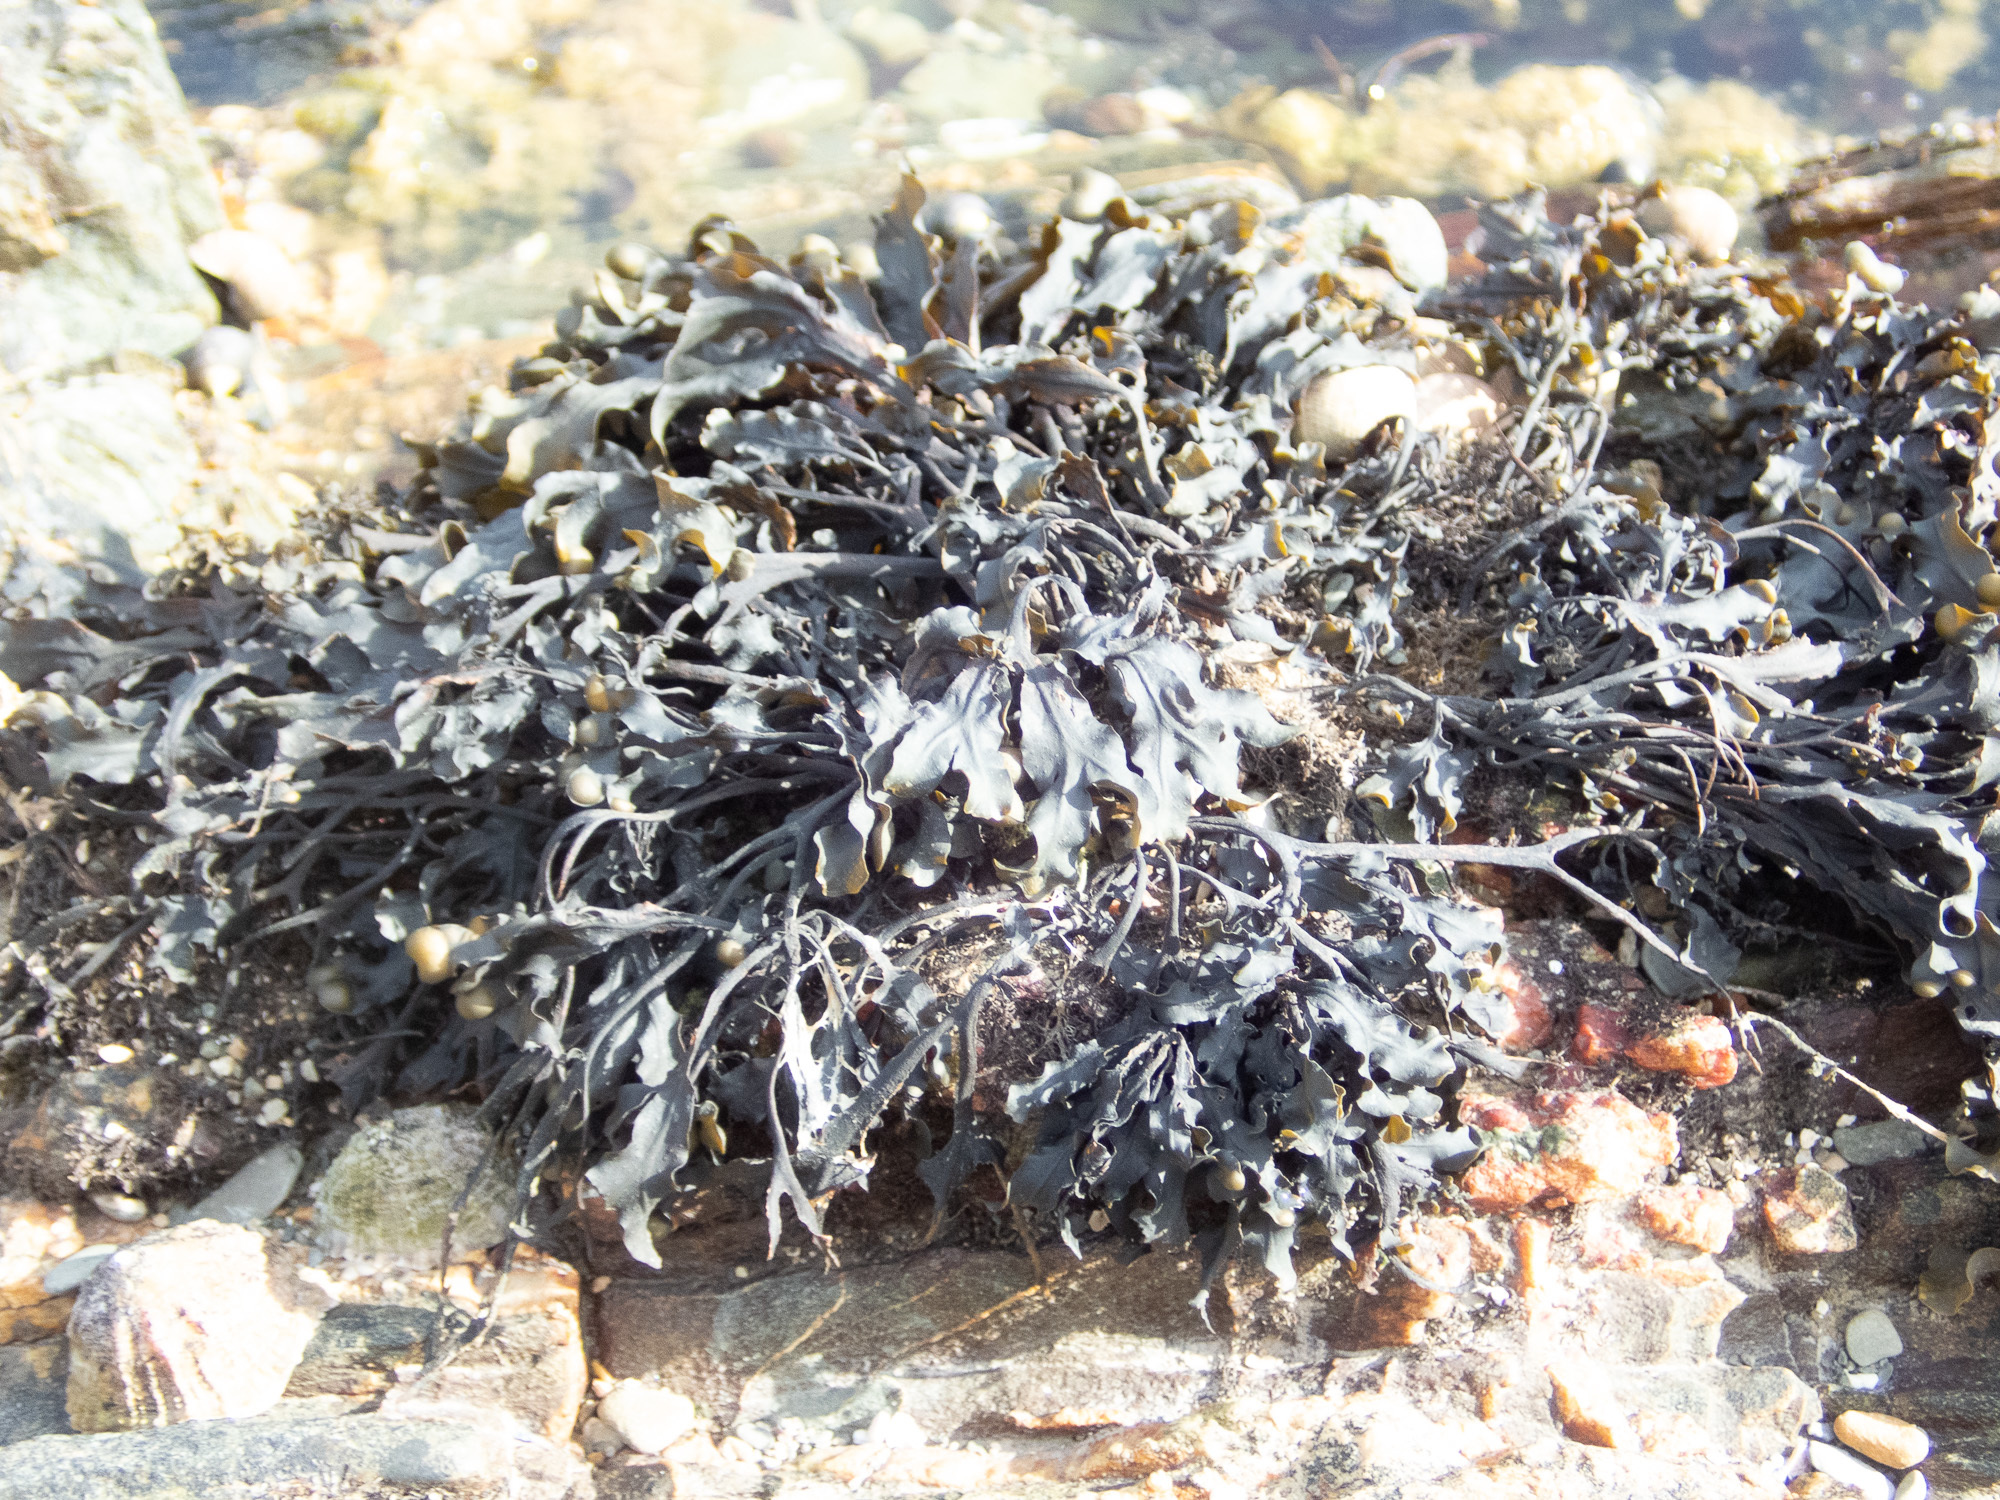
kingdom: Chromista
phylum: Ochrophyta
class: Phaeophyceae
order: Fucales
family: Fucaceae
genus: Fucus
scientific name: Fucus spiralis
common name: Spiral wrack
